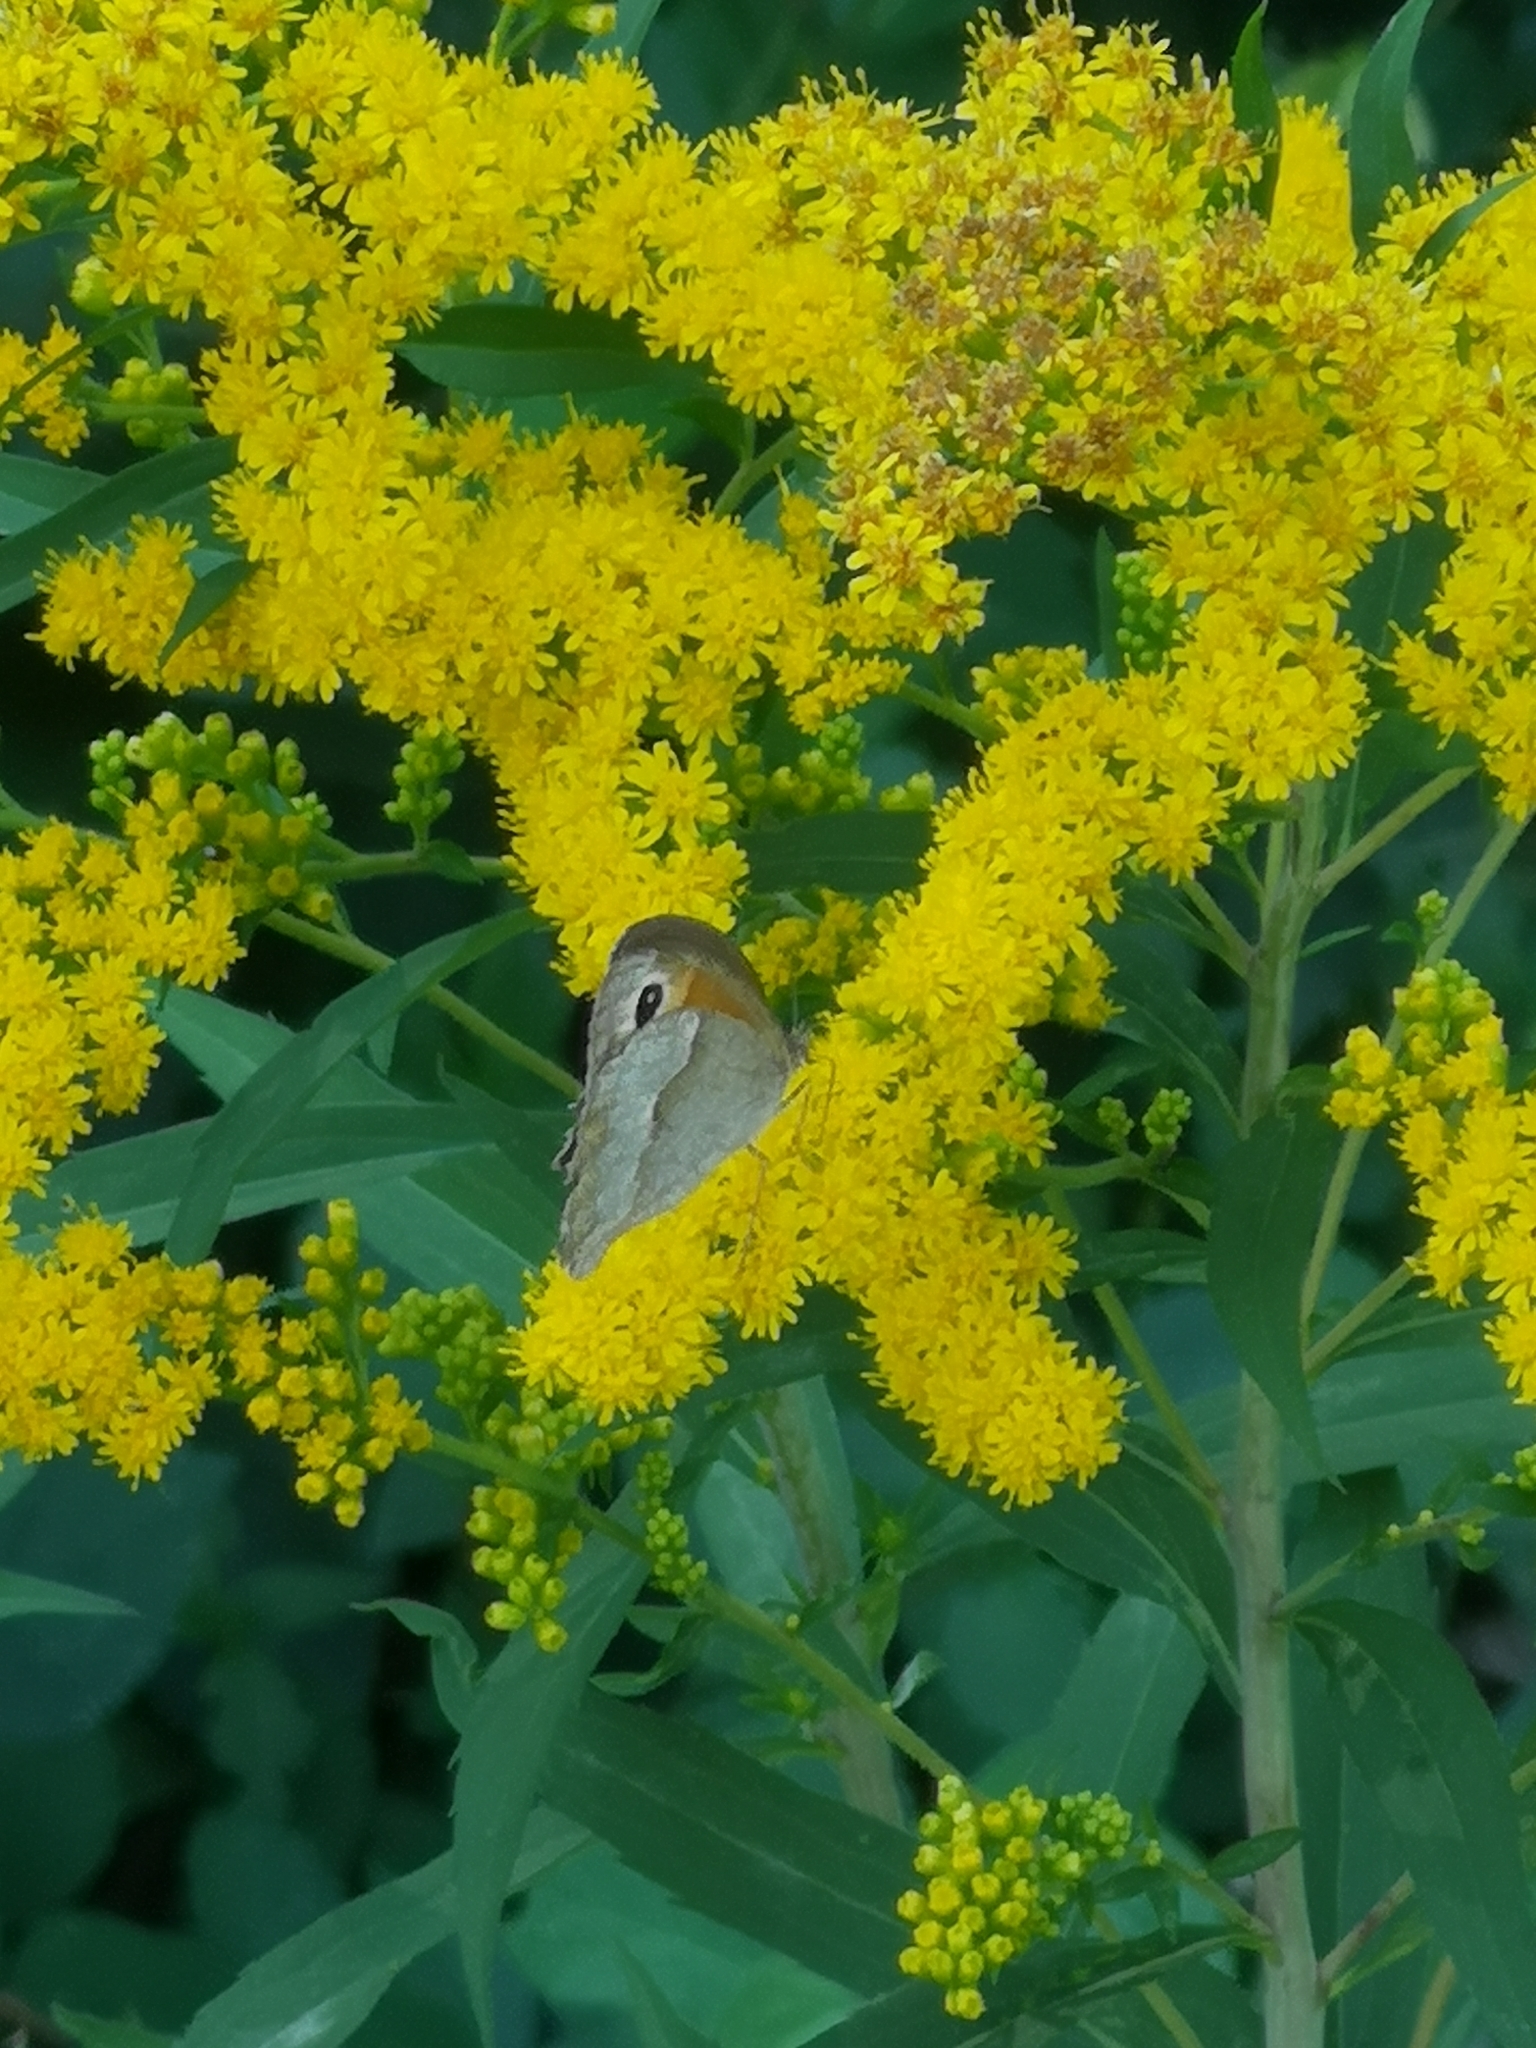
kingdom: Animalia
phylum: Arthropoda
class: Insecta
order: Lepidoptera
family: Nymphalidae
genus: Maniola
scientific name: Maniola jurtina
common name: Meadow brown
